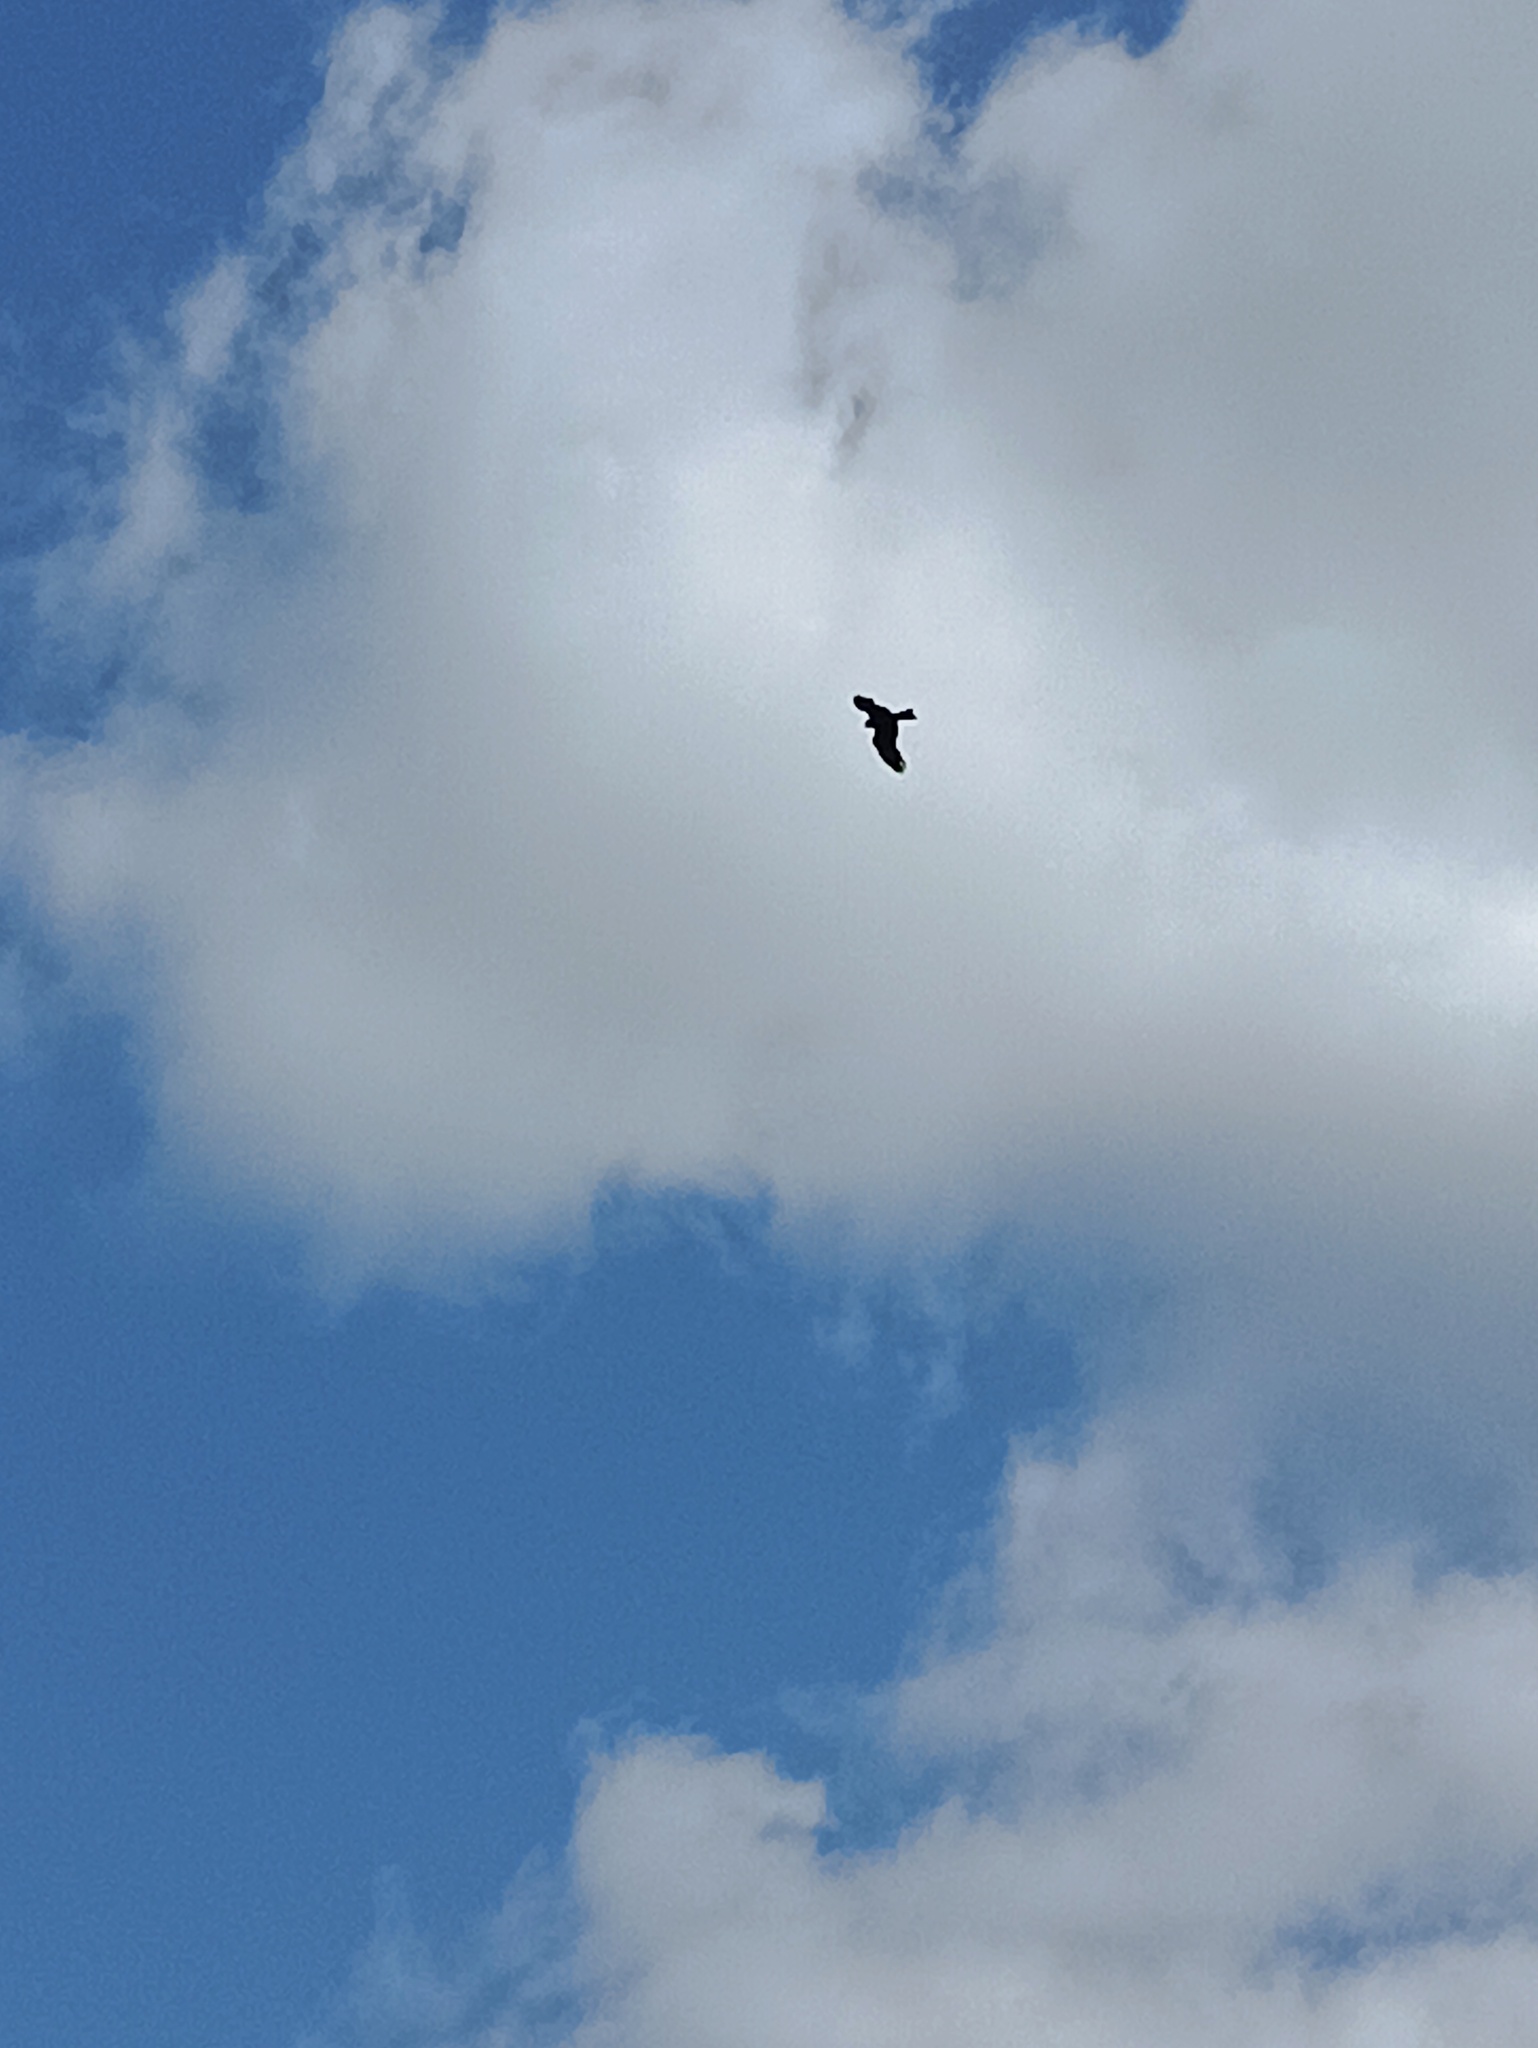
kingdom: Animalia
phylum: Chordata
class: Aves
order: Accipitriformes
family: Accipitridae
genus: Milvus
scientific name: Milvus migrans
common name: Black kite
